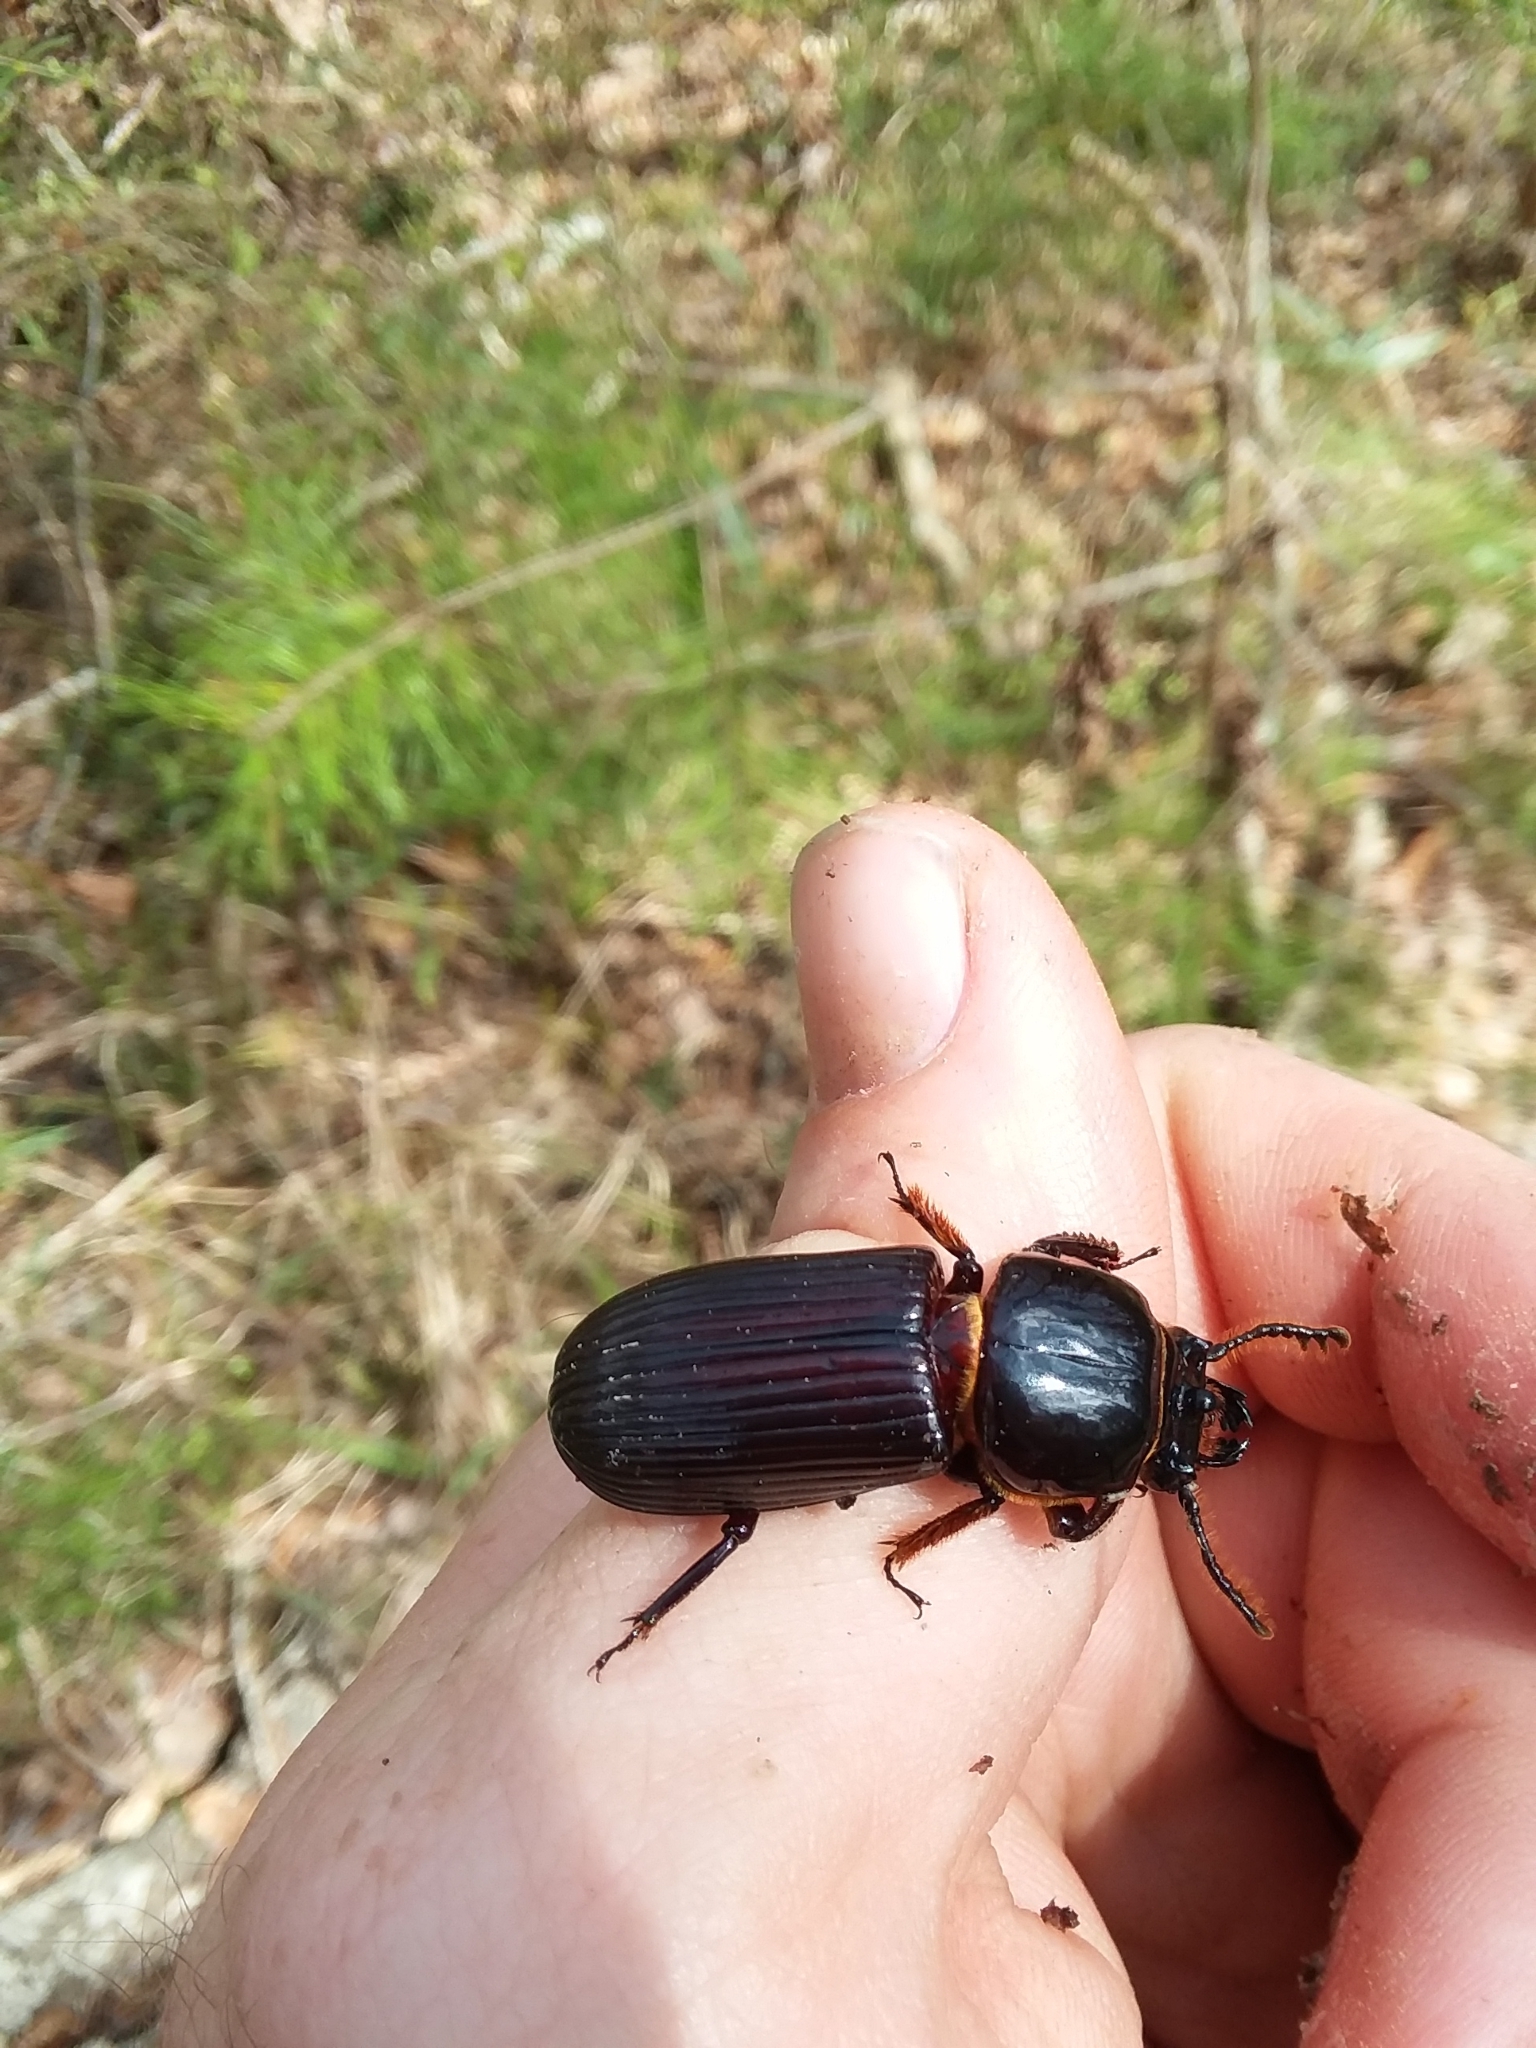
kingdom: Animalia
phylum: Arthropoda
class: Insecta
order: Coleoptera
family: Passalidae
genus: Odontotaenius
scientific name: Odontotaenius disjunctus
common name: Patent leather beetle
